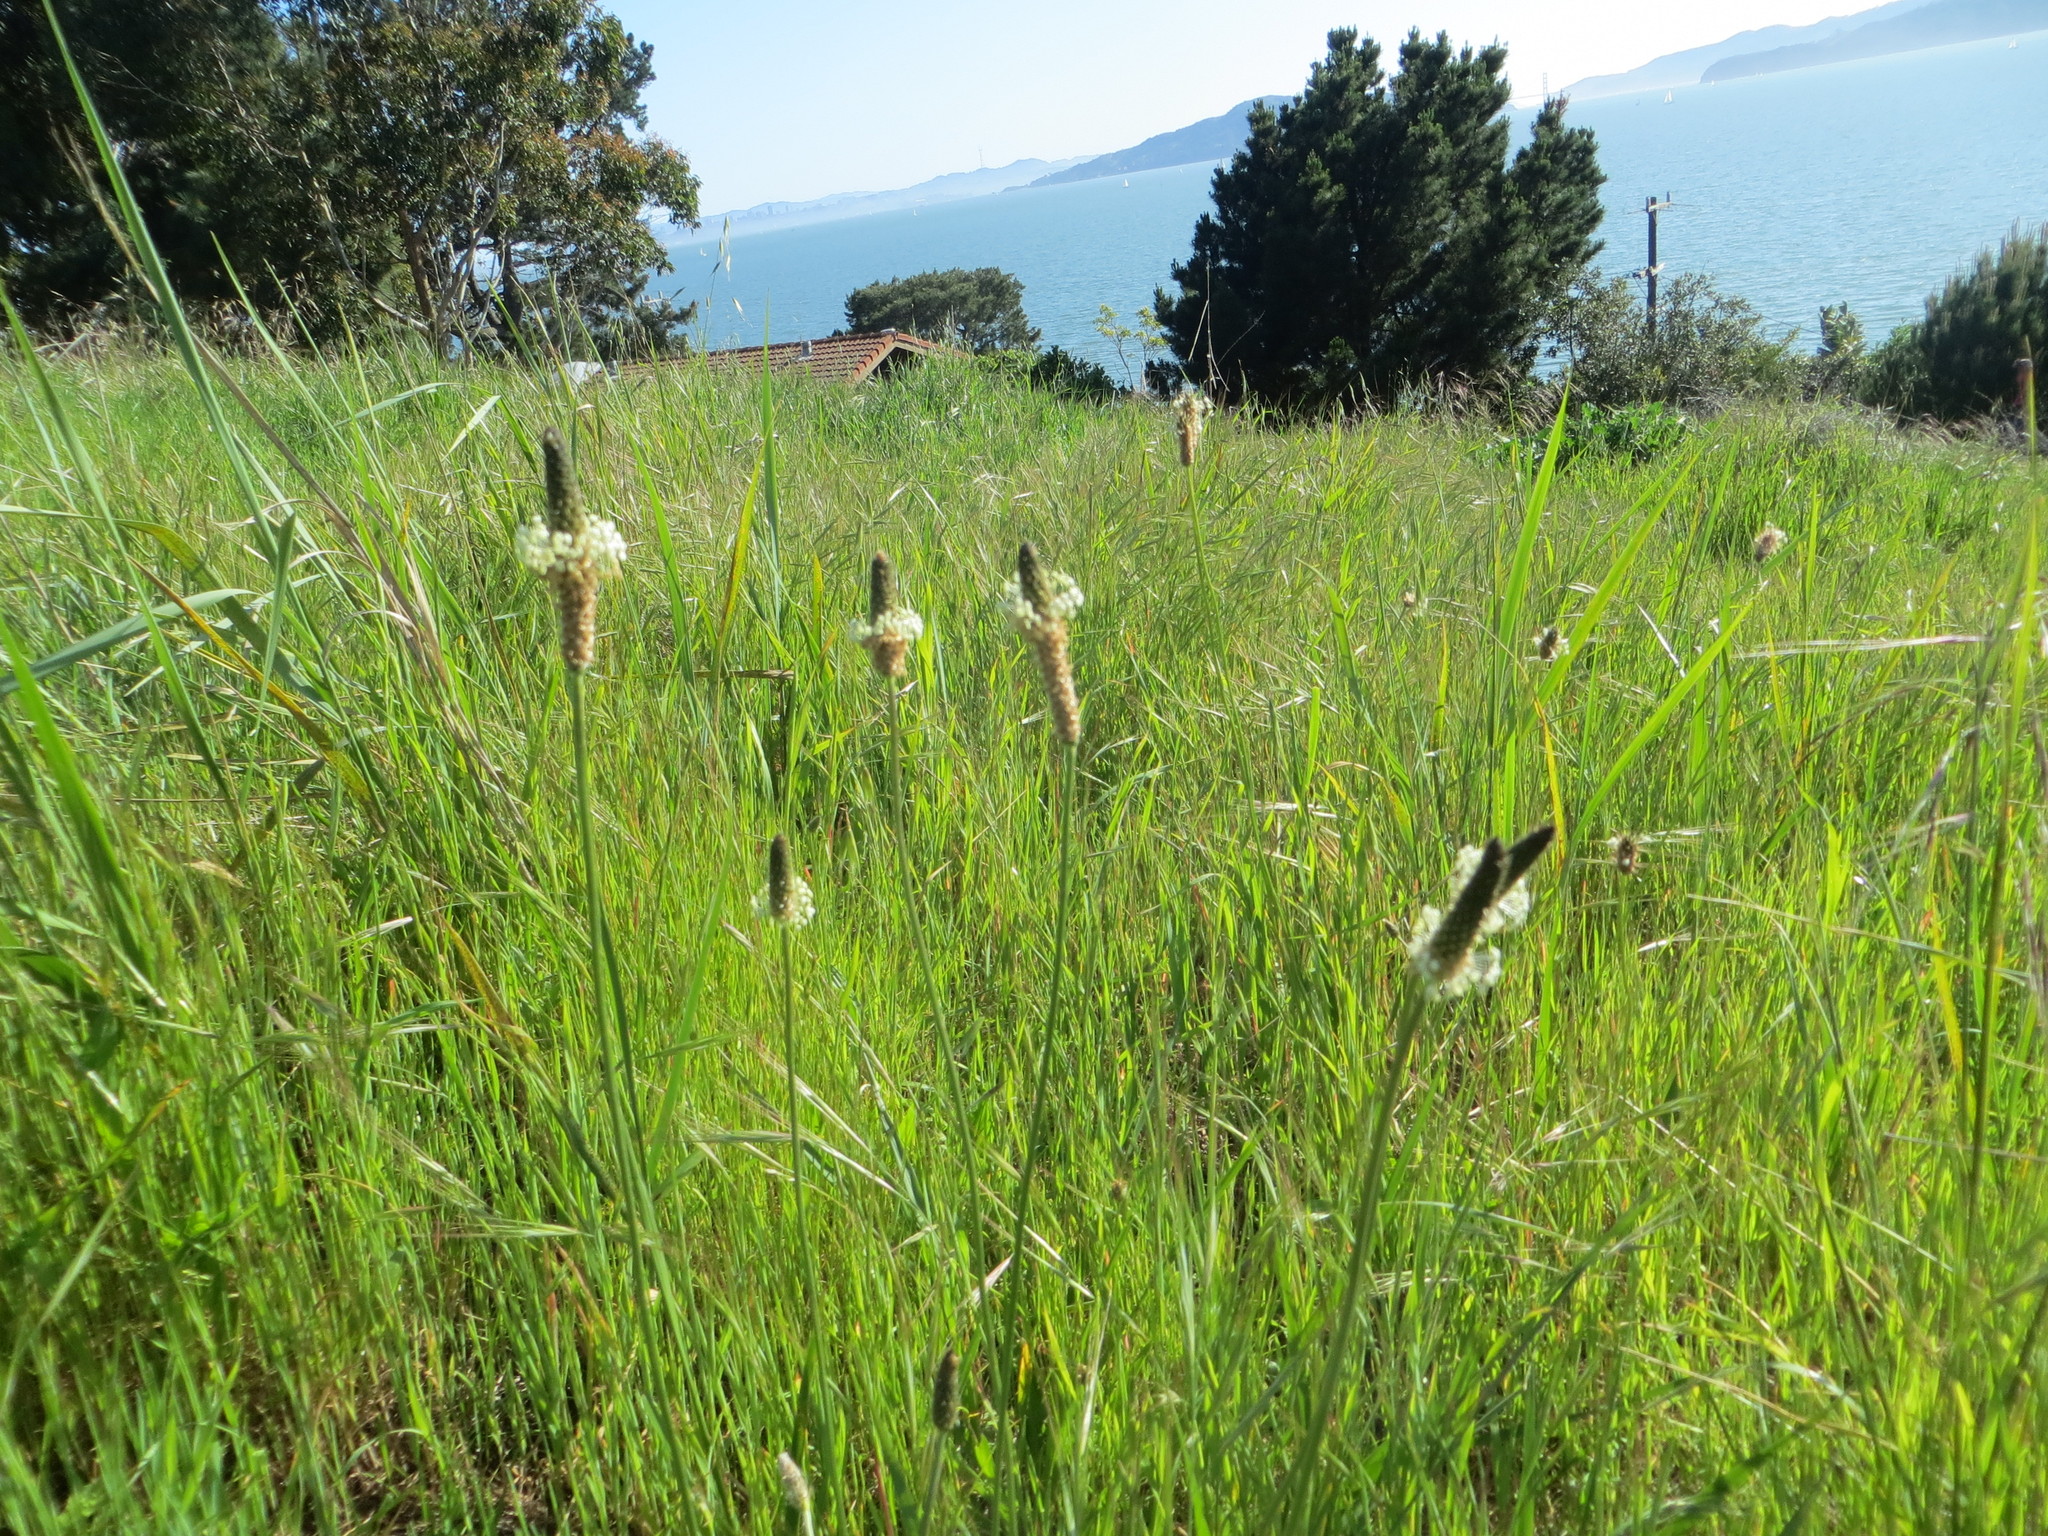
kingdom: Plantae
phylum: Tracheophyta
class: Magnoliopsida
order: Lamiales
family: Plantaginaceae
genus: Plantago
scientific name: Plantago lanceolata
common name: Ribwort plantain
